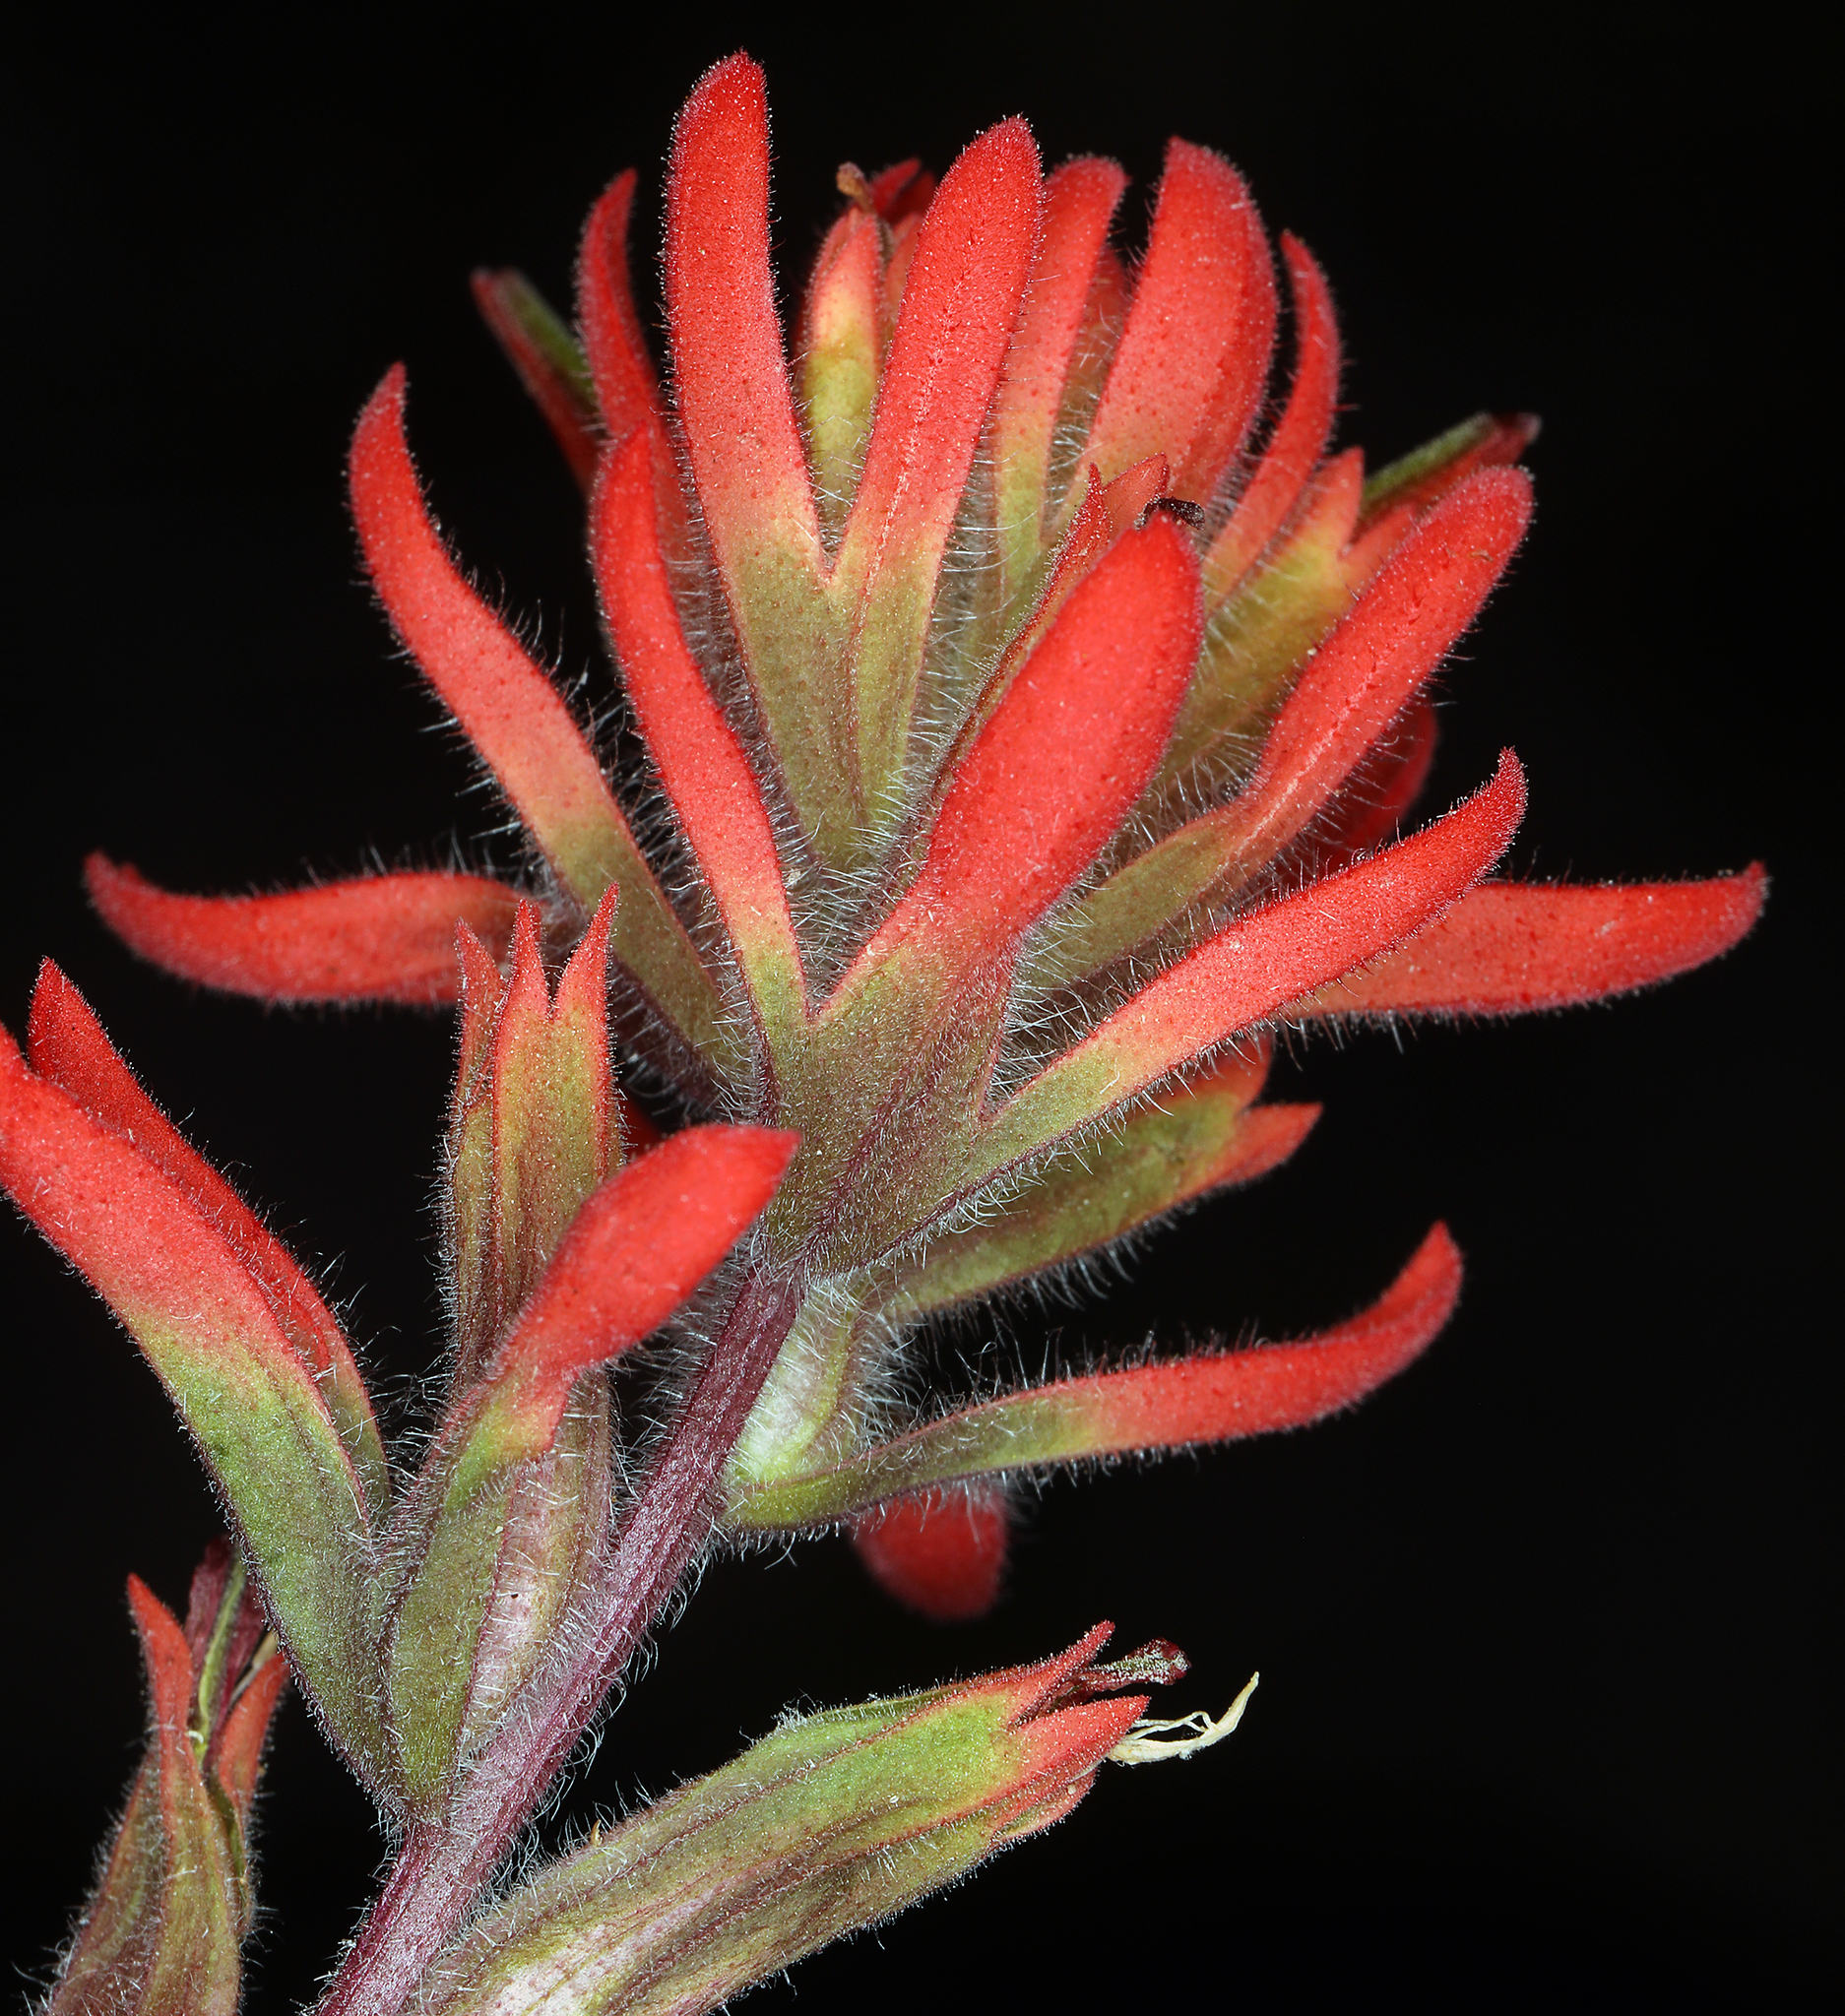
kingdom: Plantae
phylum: Tracheophyta
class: Magnoliopsida
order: Lamiales
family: Orobanchaceae
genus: Castilleja
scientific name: Castilleja chromosa
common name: Desert paintbrush
